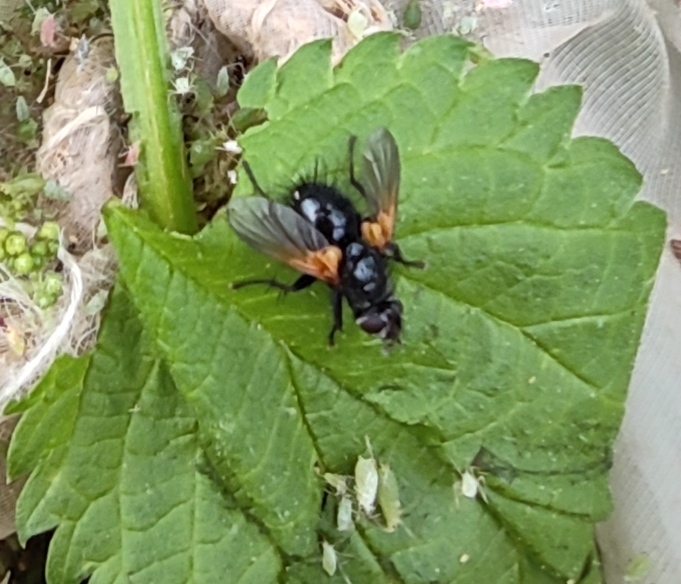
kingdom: Animalia
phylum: Arthropoda
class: Insecta
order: Diptera
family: Tachinidae
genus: Zophomyia
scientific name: Zophomyia temula
